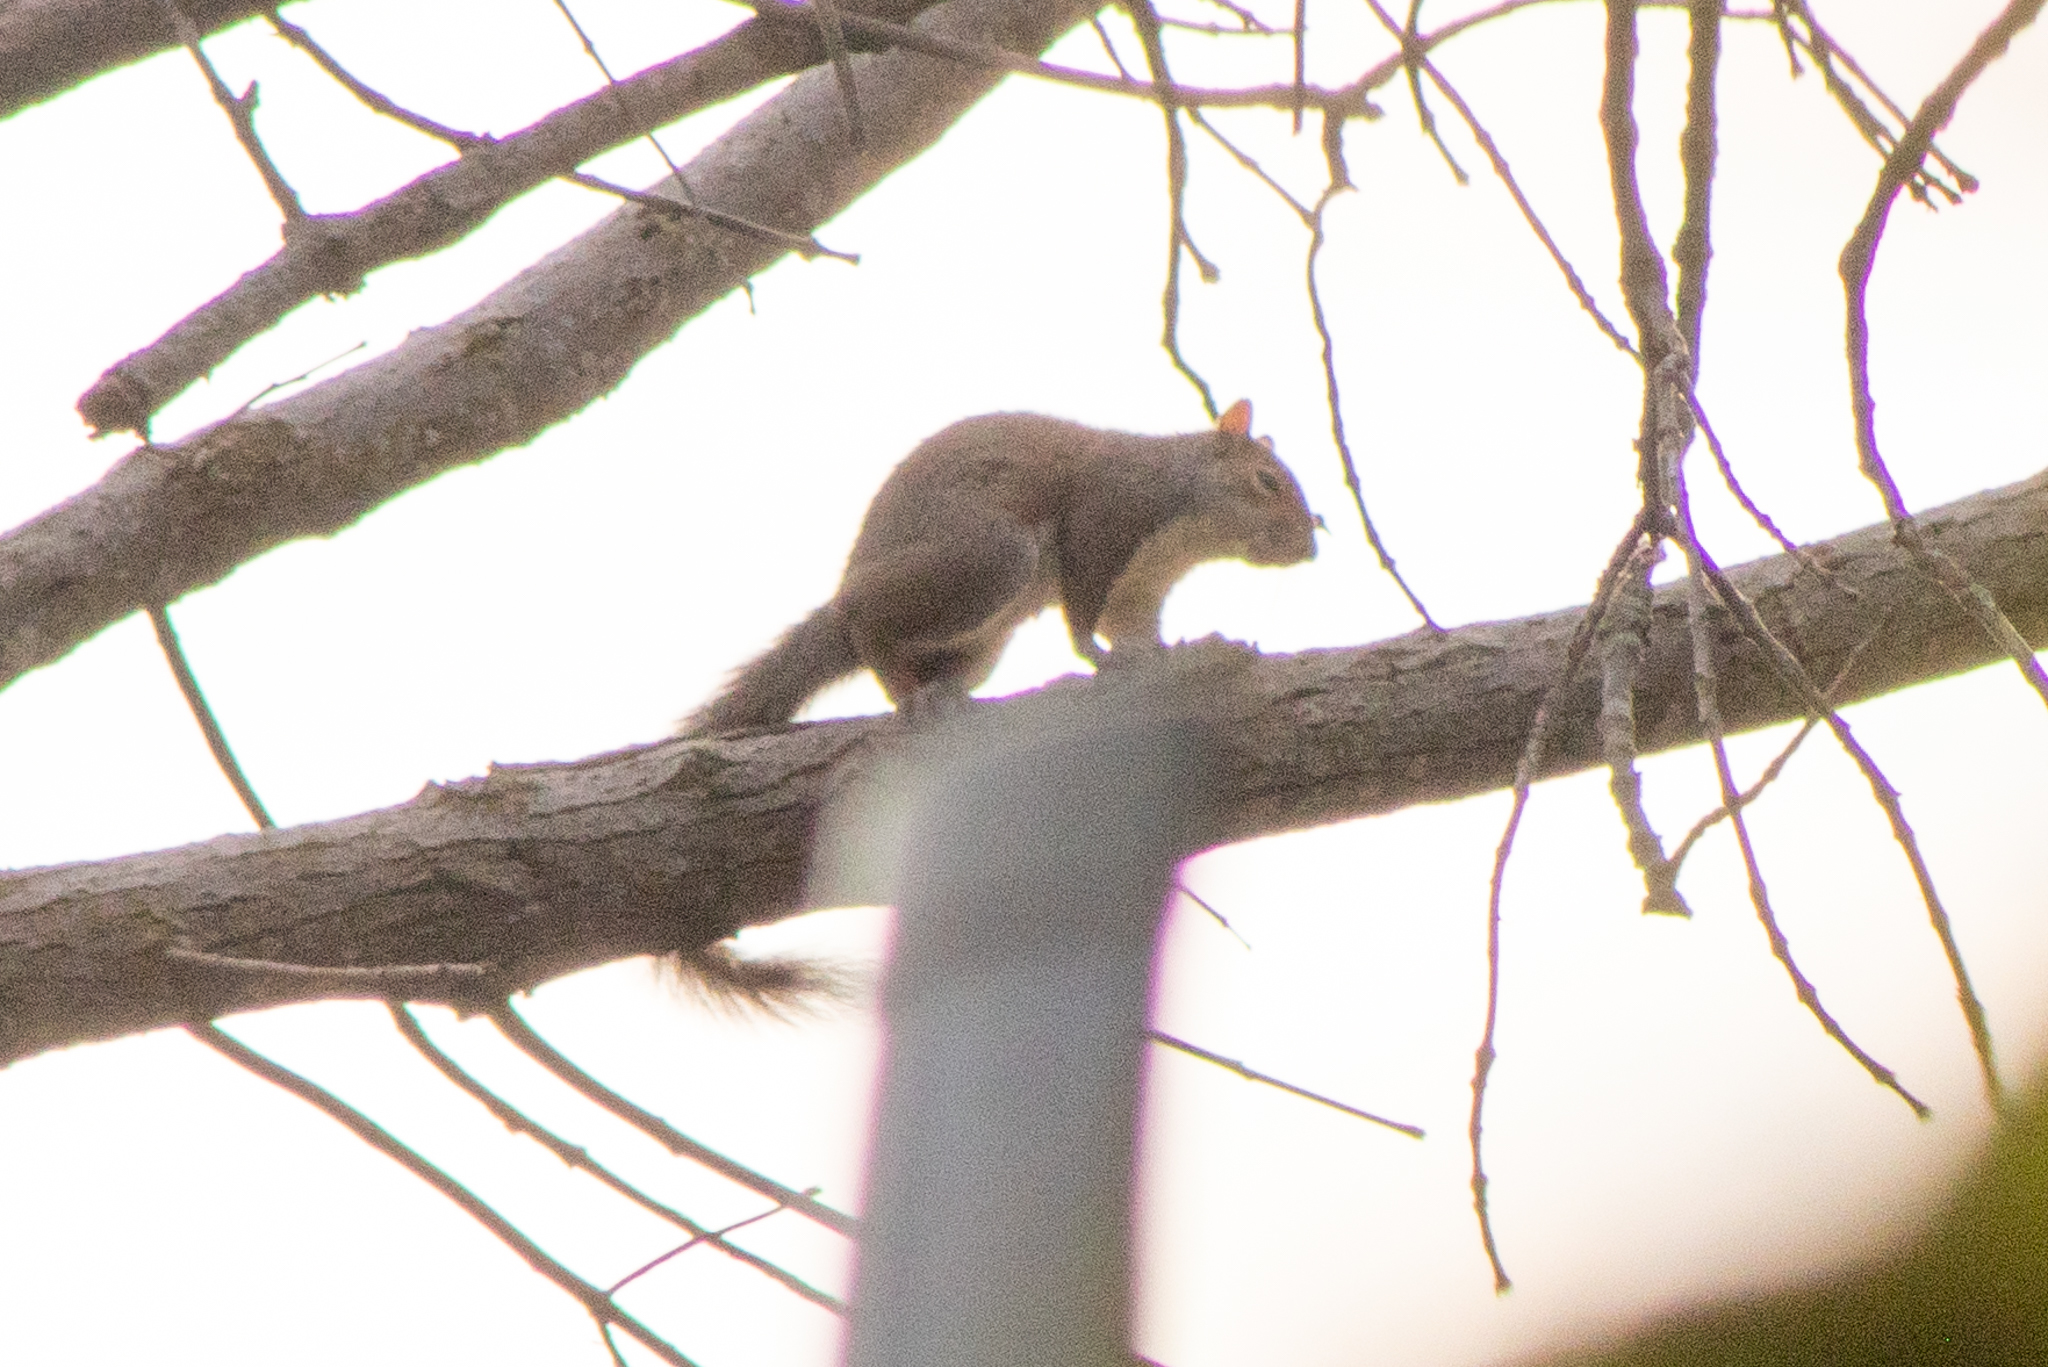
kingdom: Animalia
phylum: Chordata
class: Mammalia
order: Rodentia
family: Sciuridae
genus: Sciurus
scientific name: Sciurus carolinensis
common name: Eastern gray squirrel
